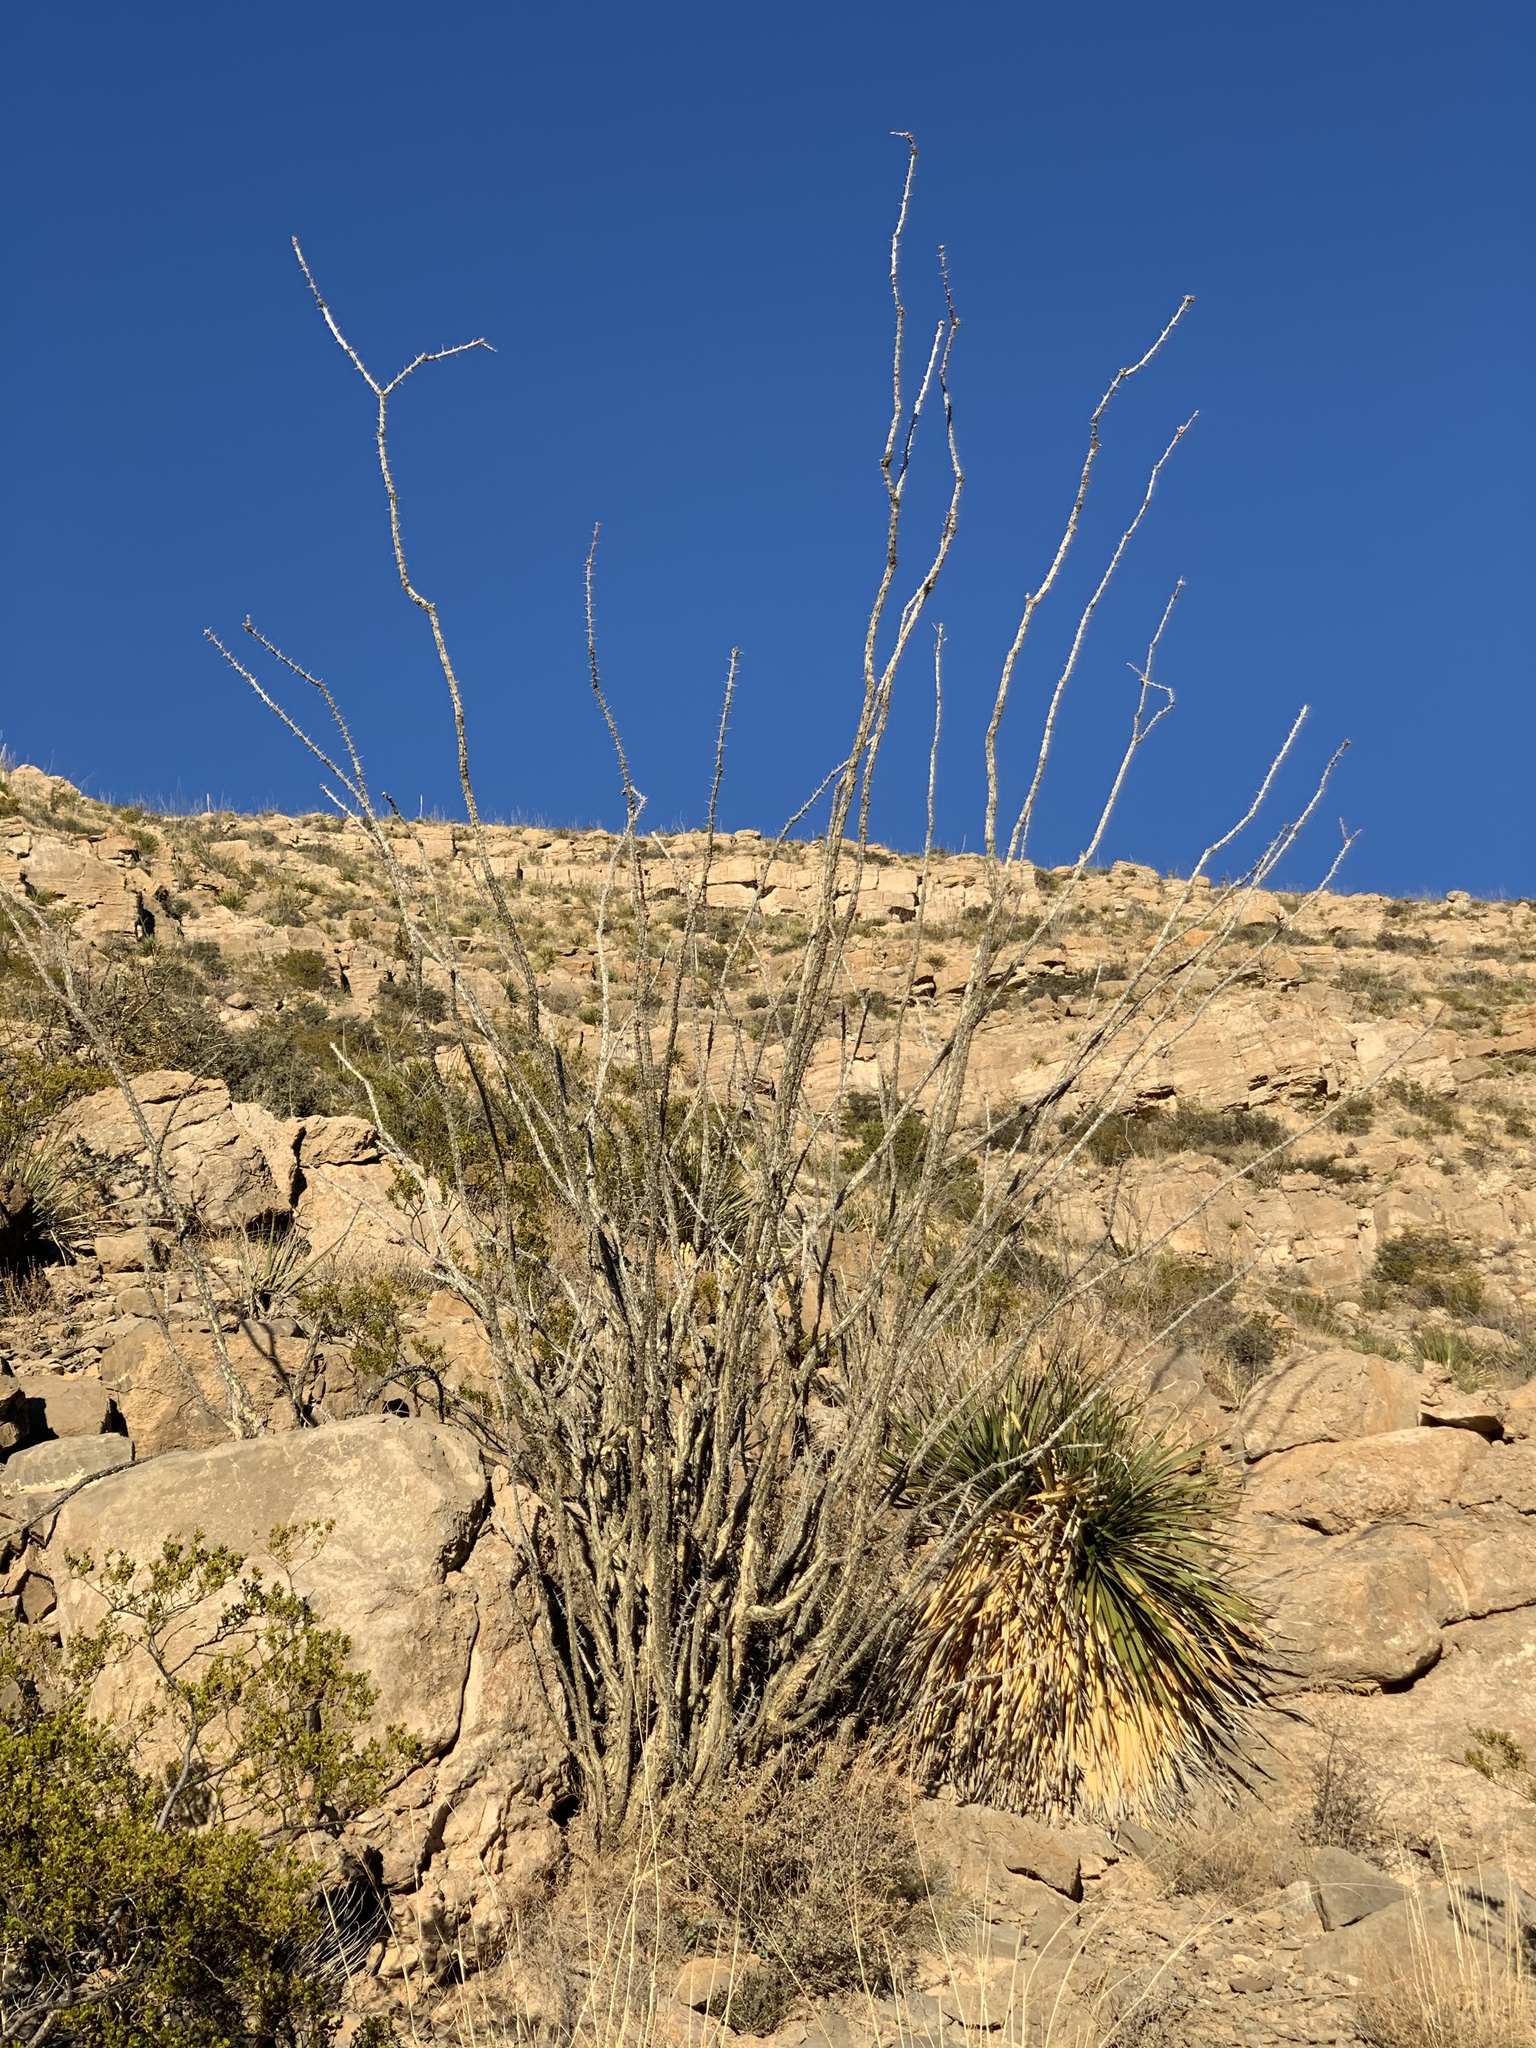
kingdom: Plantae
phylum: Tracheophyta
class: Magnoliopsida
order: Ericales
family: Fouquieriaceae
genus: Fouquieria
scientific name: Fouquieria splendens
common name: Vine-cactus
